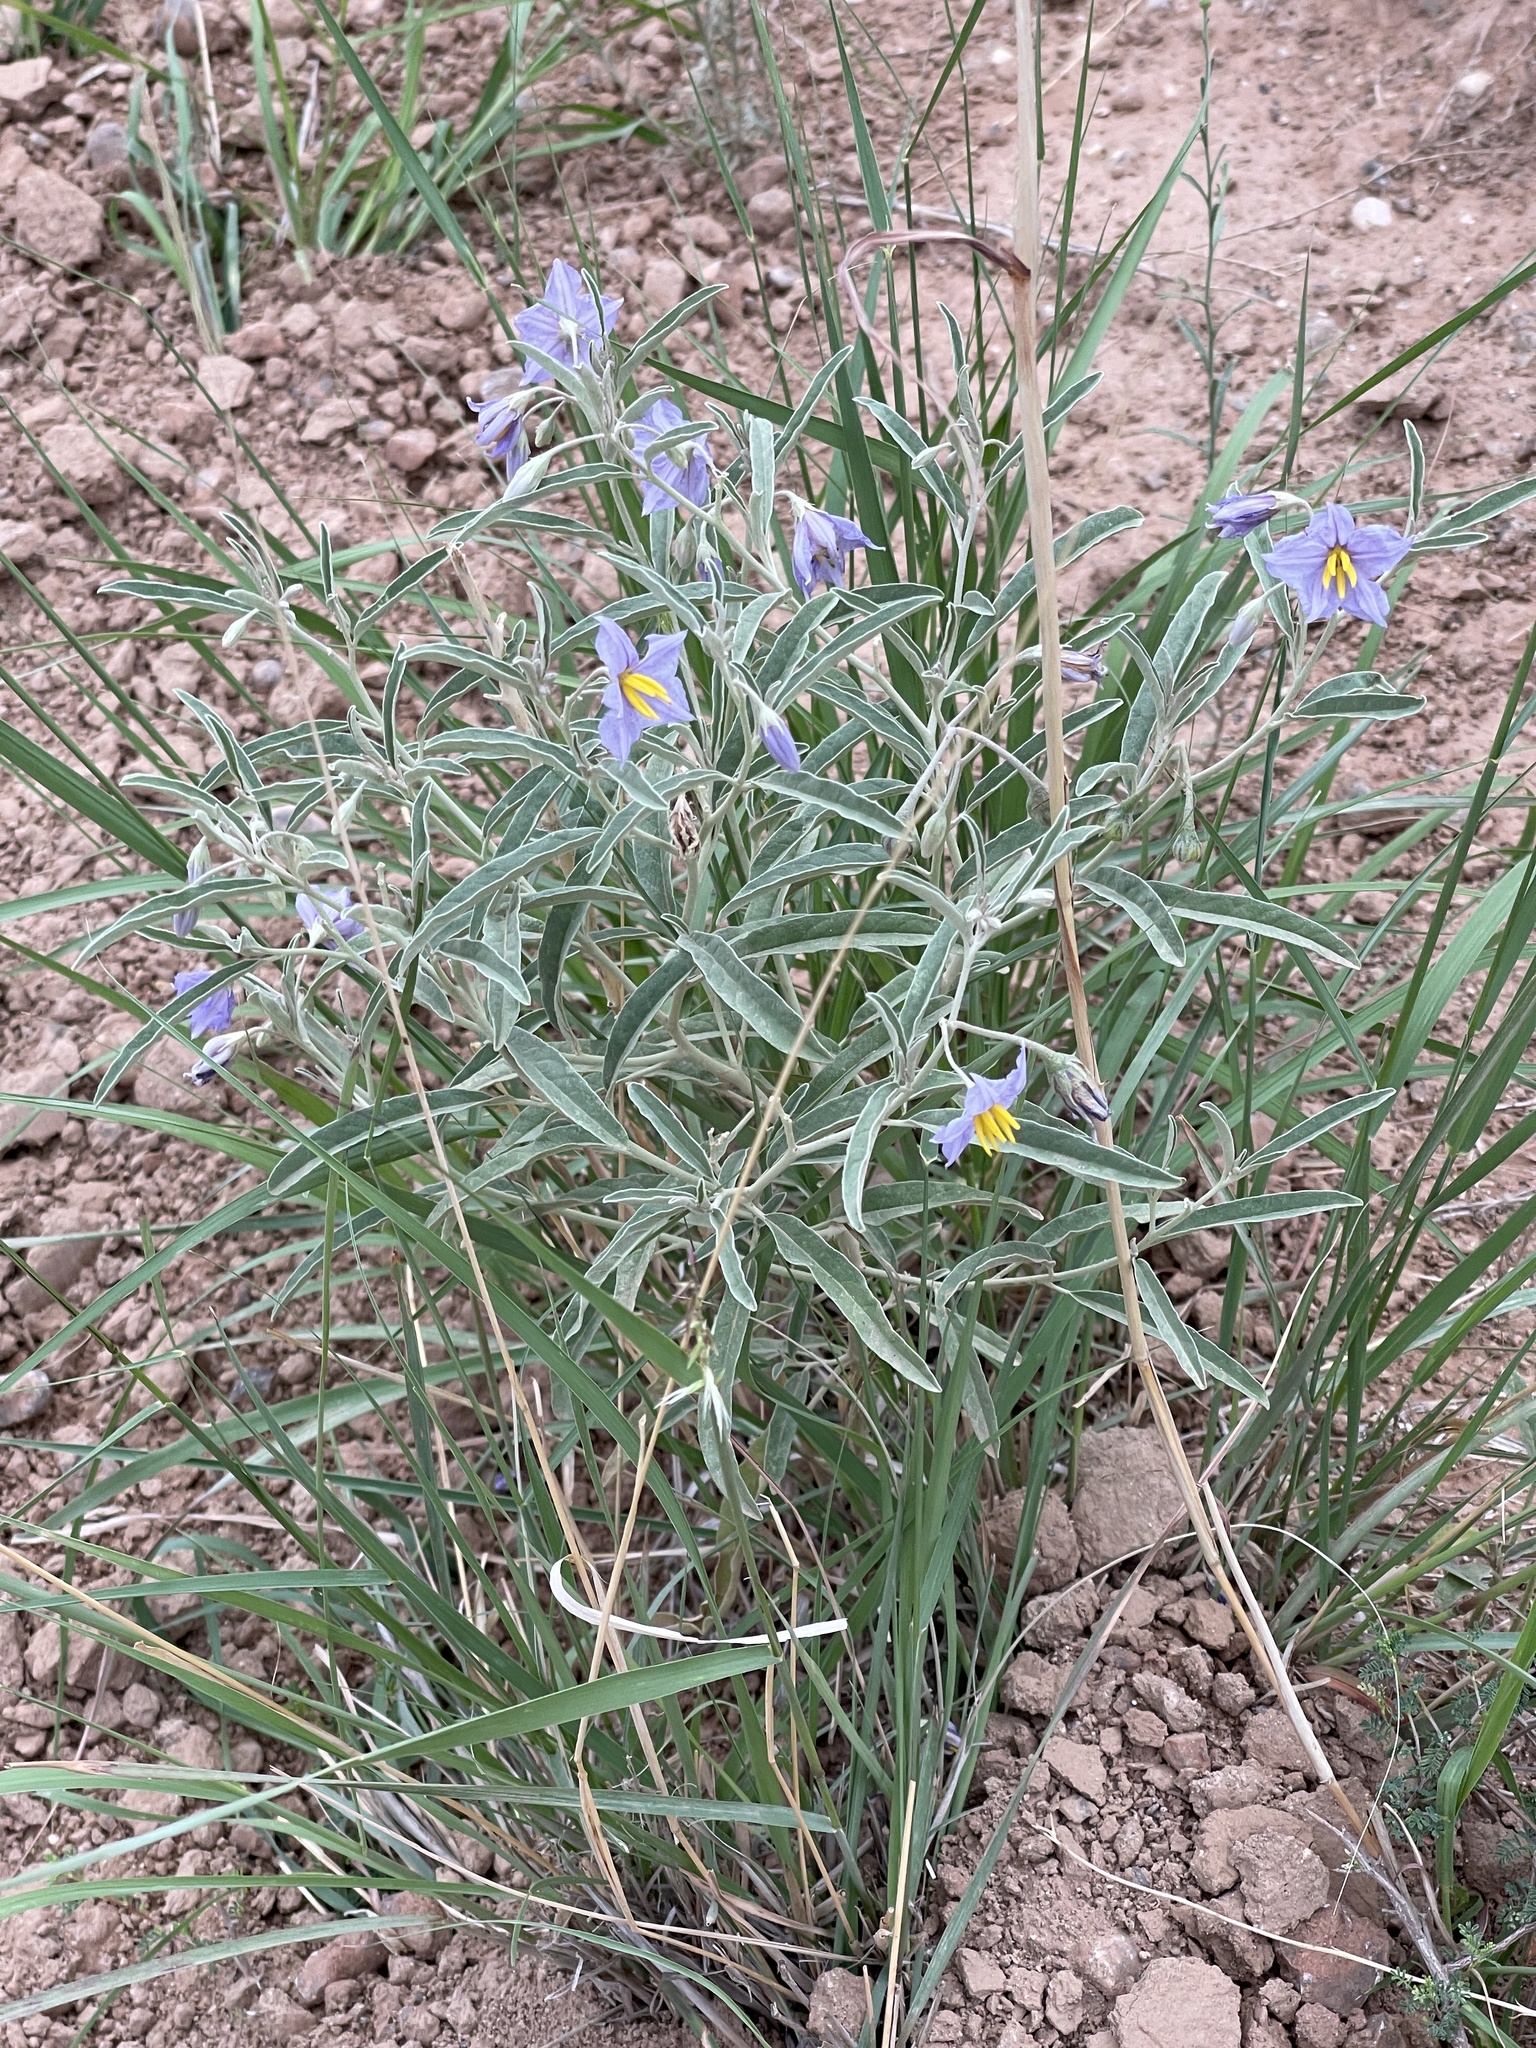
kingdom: Plantae
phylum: Tracheophyta
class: Magnoliopsida
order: Solanales
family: Solanaceae
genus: Solanum
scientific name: Solanum elaeagnifolium
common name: Silverleaf nightshade
